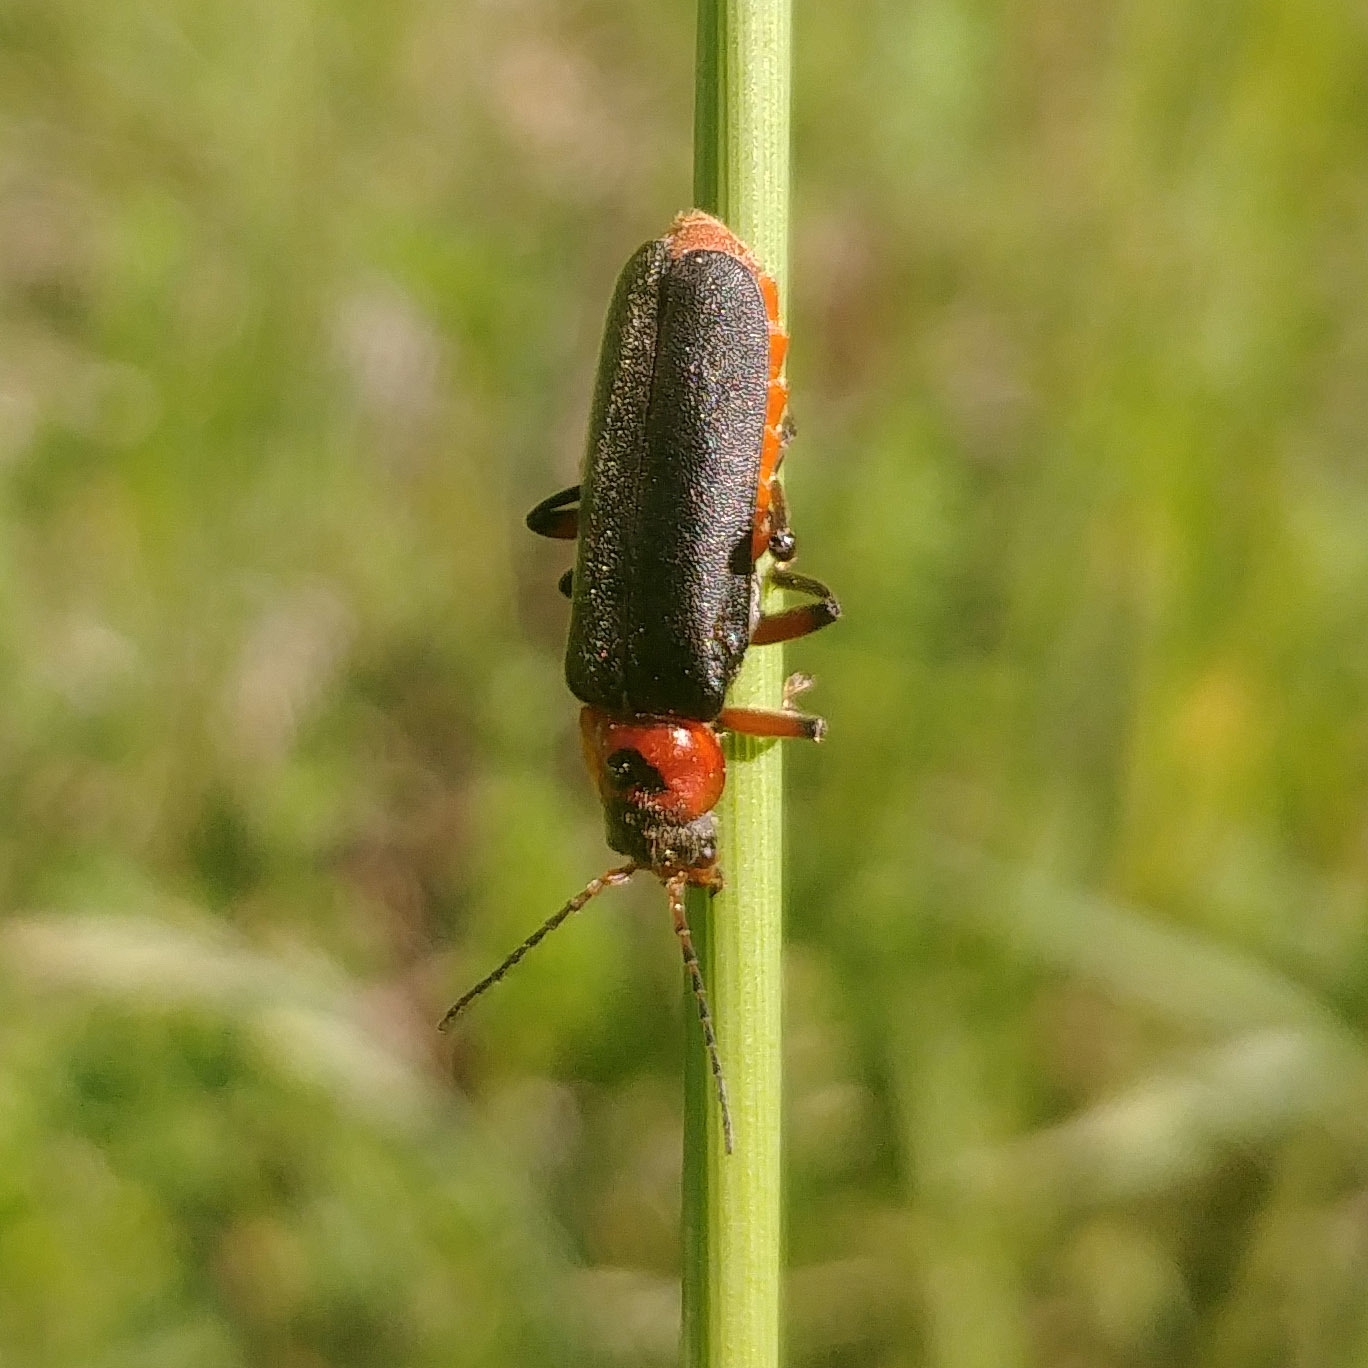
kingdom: Animalia
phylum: Arthropoda
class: Insecta
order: Coleoptera
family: Cantharidae
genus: Cantharis
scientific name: Cantharis rustica
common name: Soldier beetle
